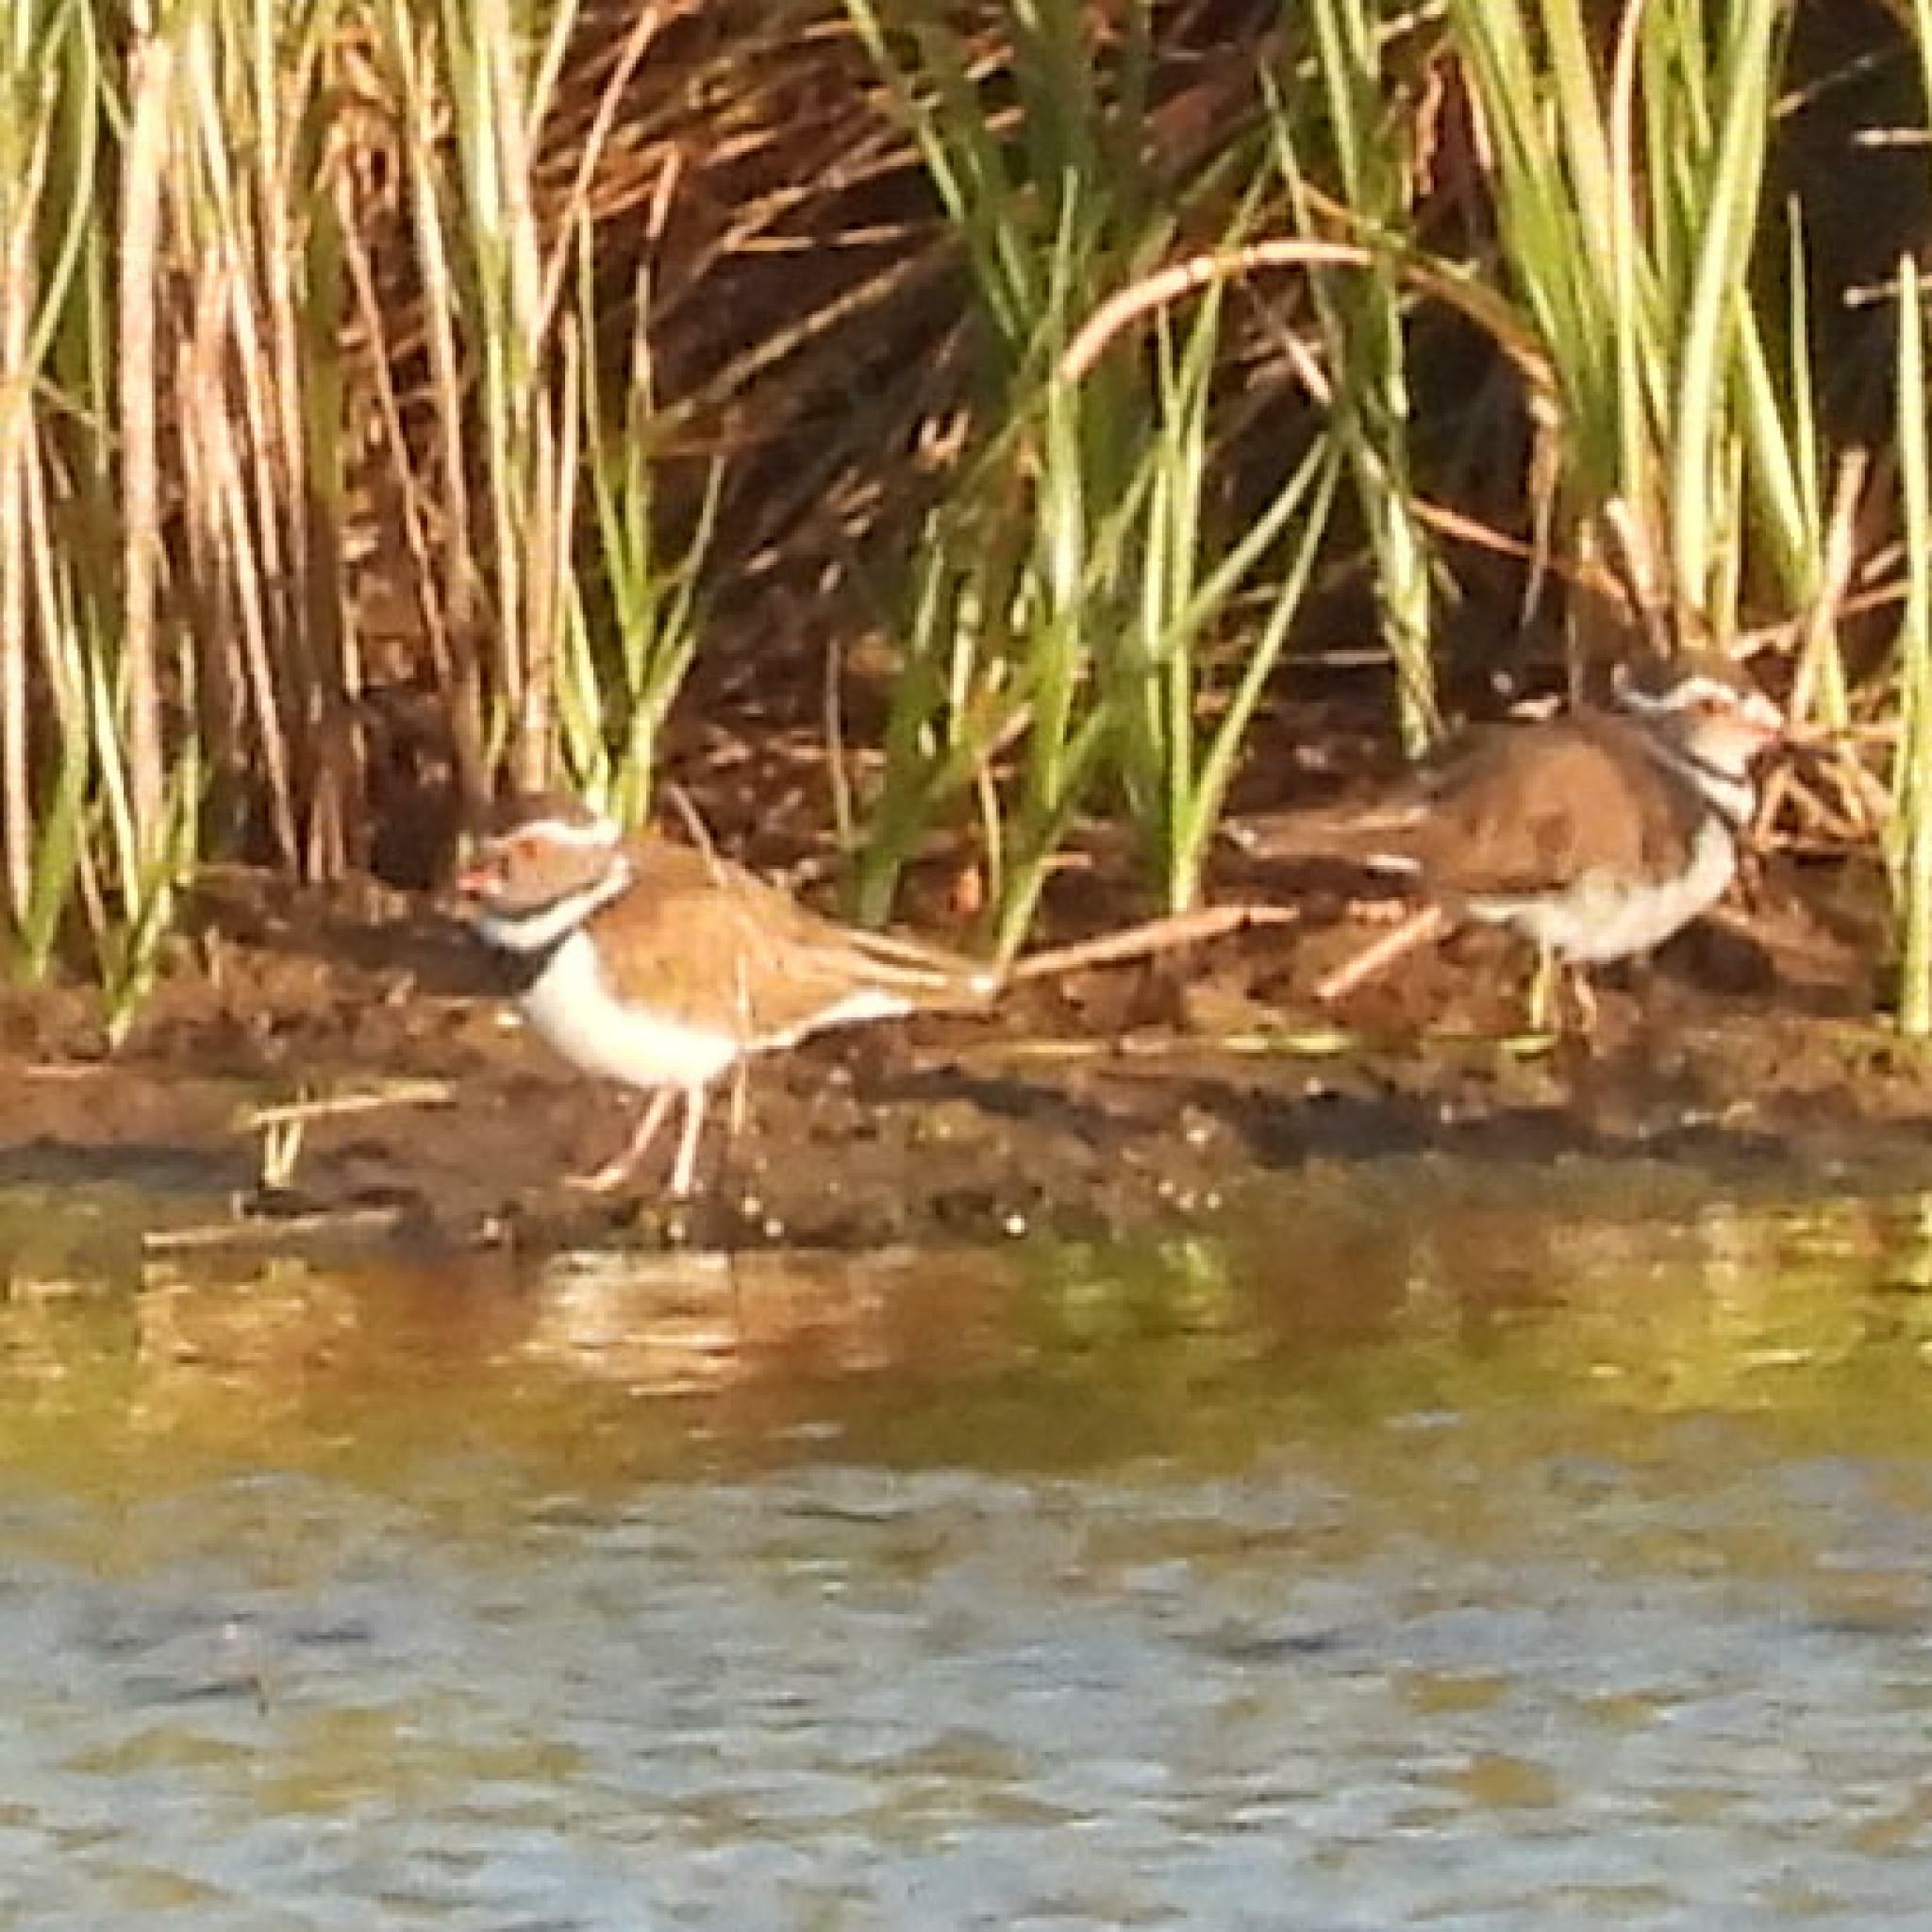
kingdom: Animalia
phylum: Chordata
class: Aves
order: Charadriiformes
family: Charadriidae
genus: Charadrius
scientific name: Charadrius tricollaris
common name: Three-banded plover
